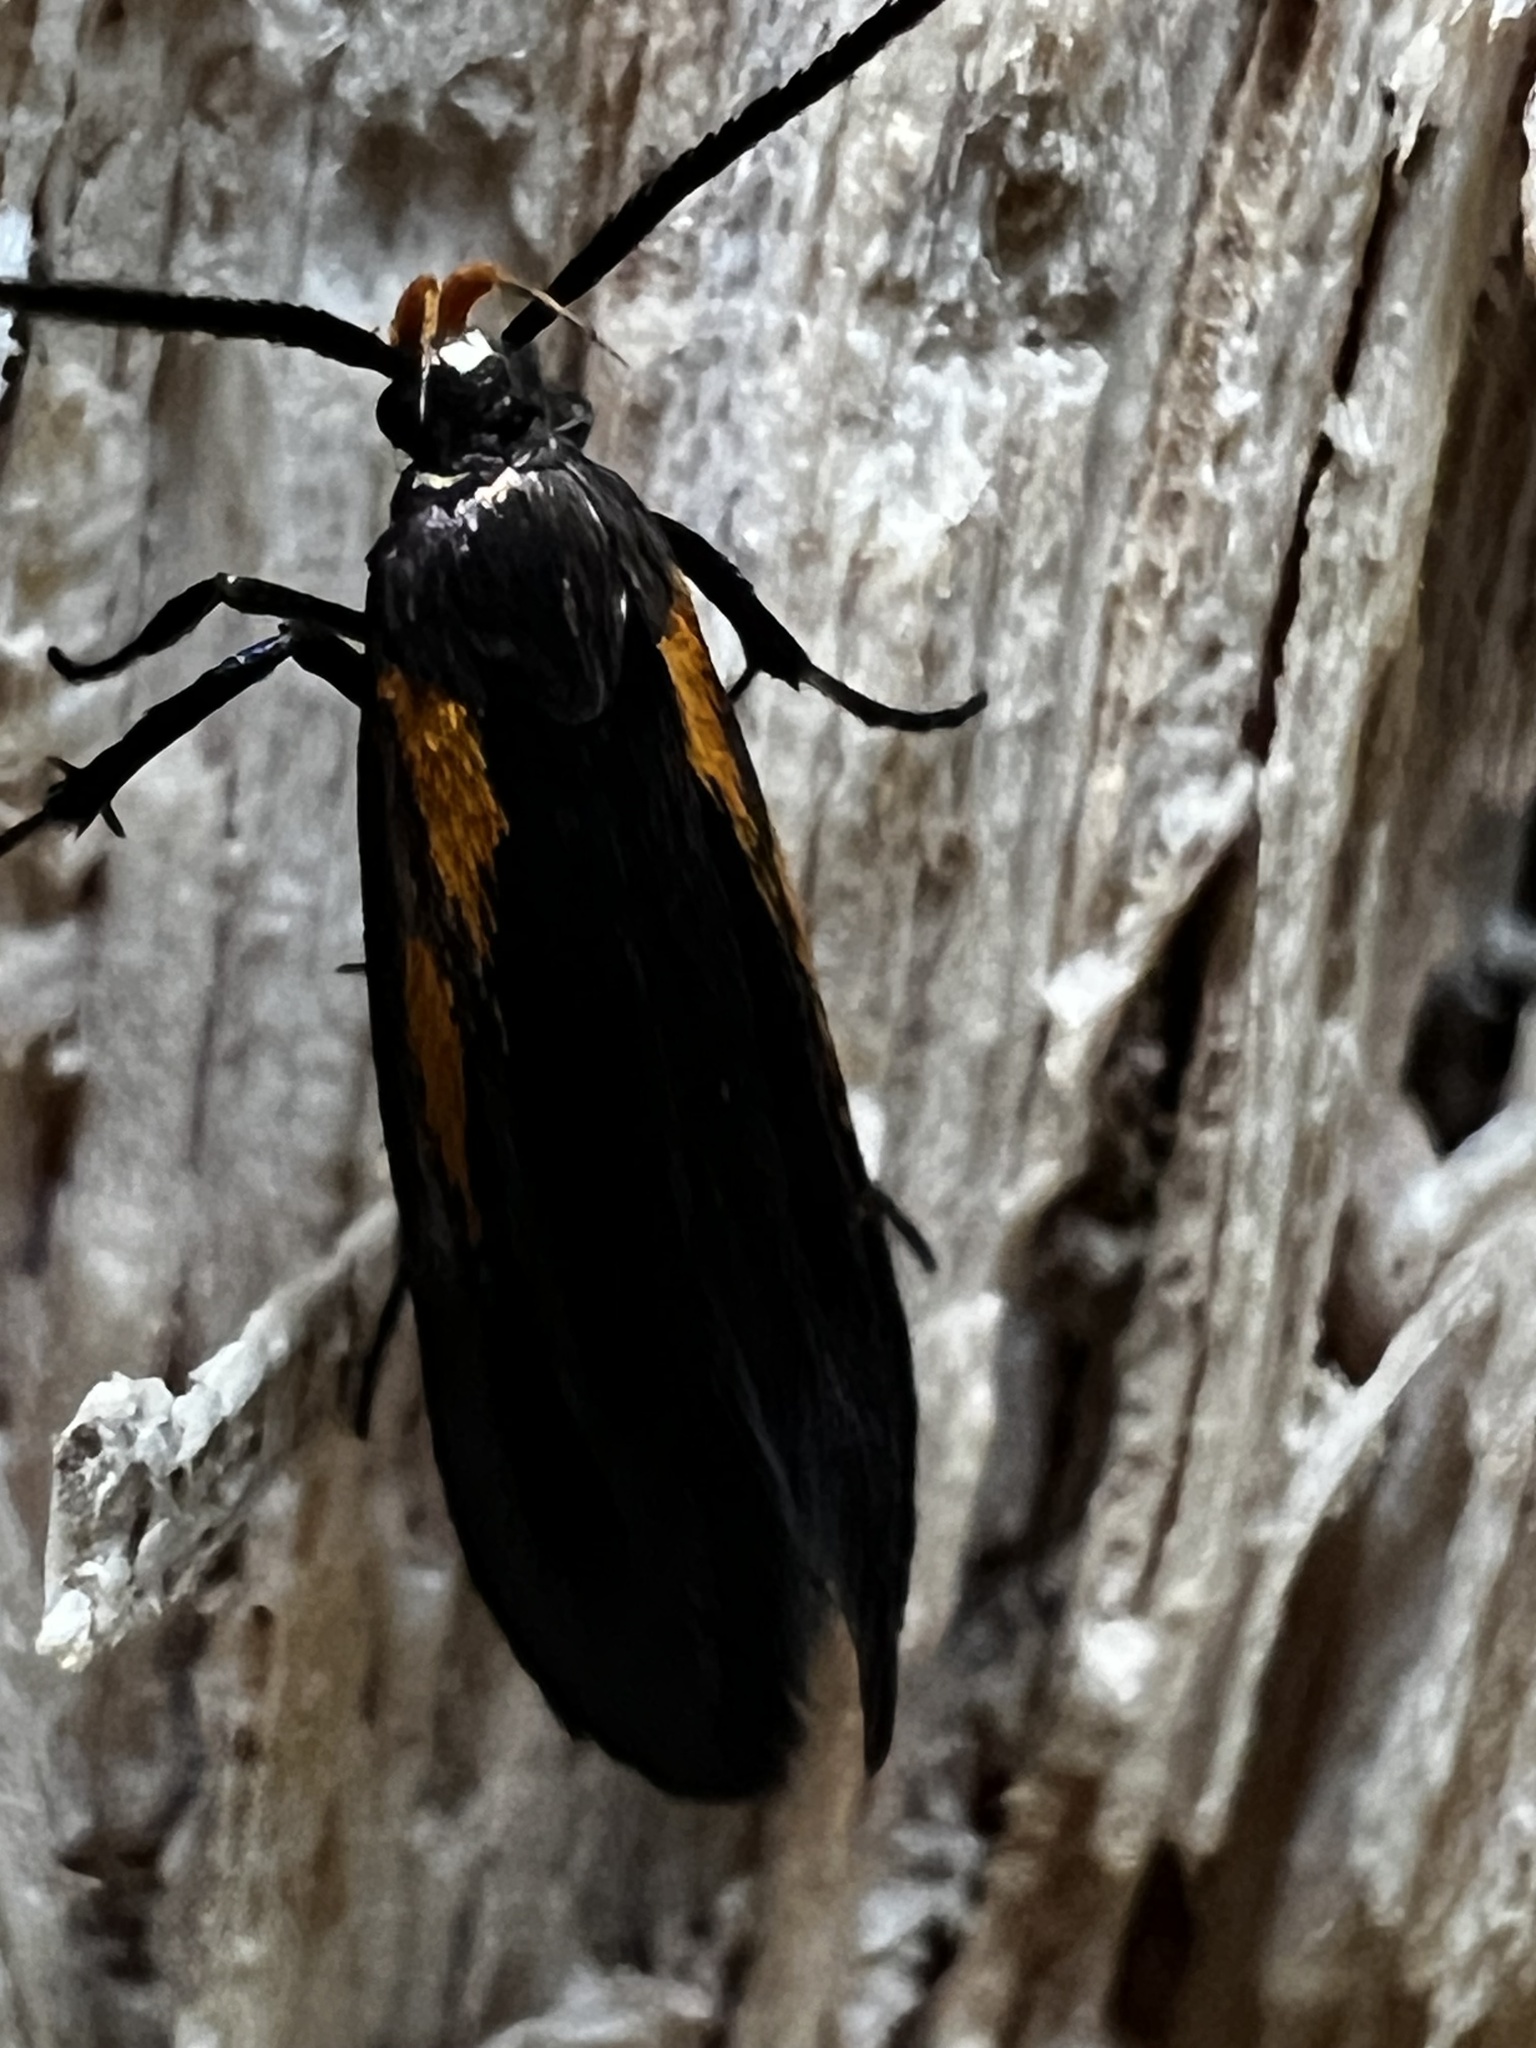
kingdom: Animalia
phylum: Arthropoda
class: Insecta
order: Lepidoptera
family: Oecophoridae
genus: Mathildana
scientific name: Mathildana newmanella
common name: Newman's mathildana moth
